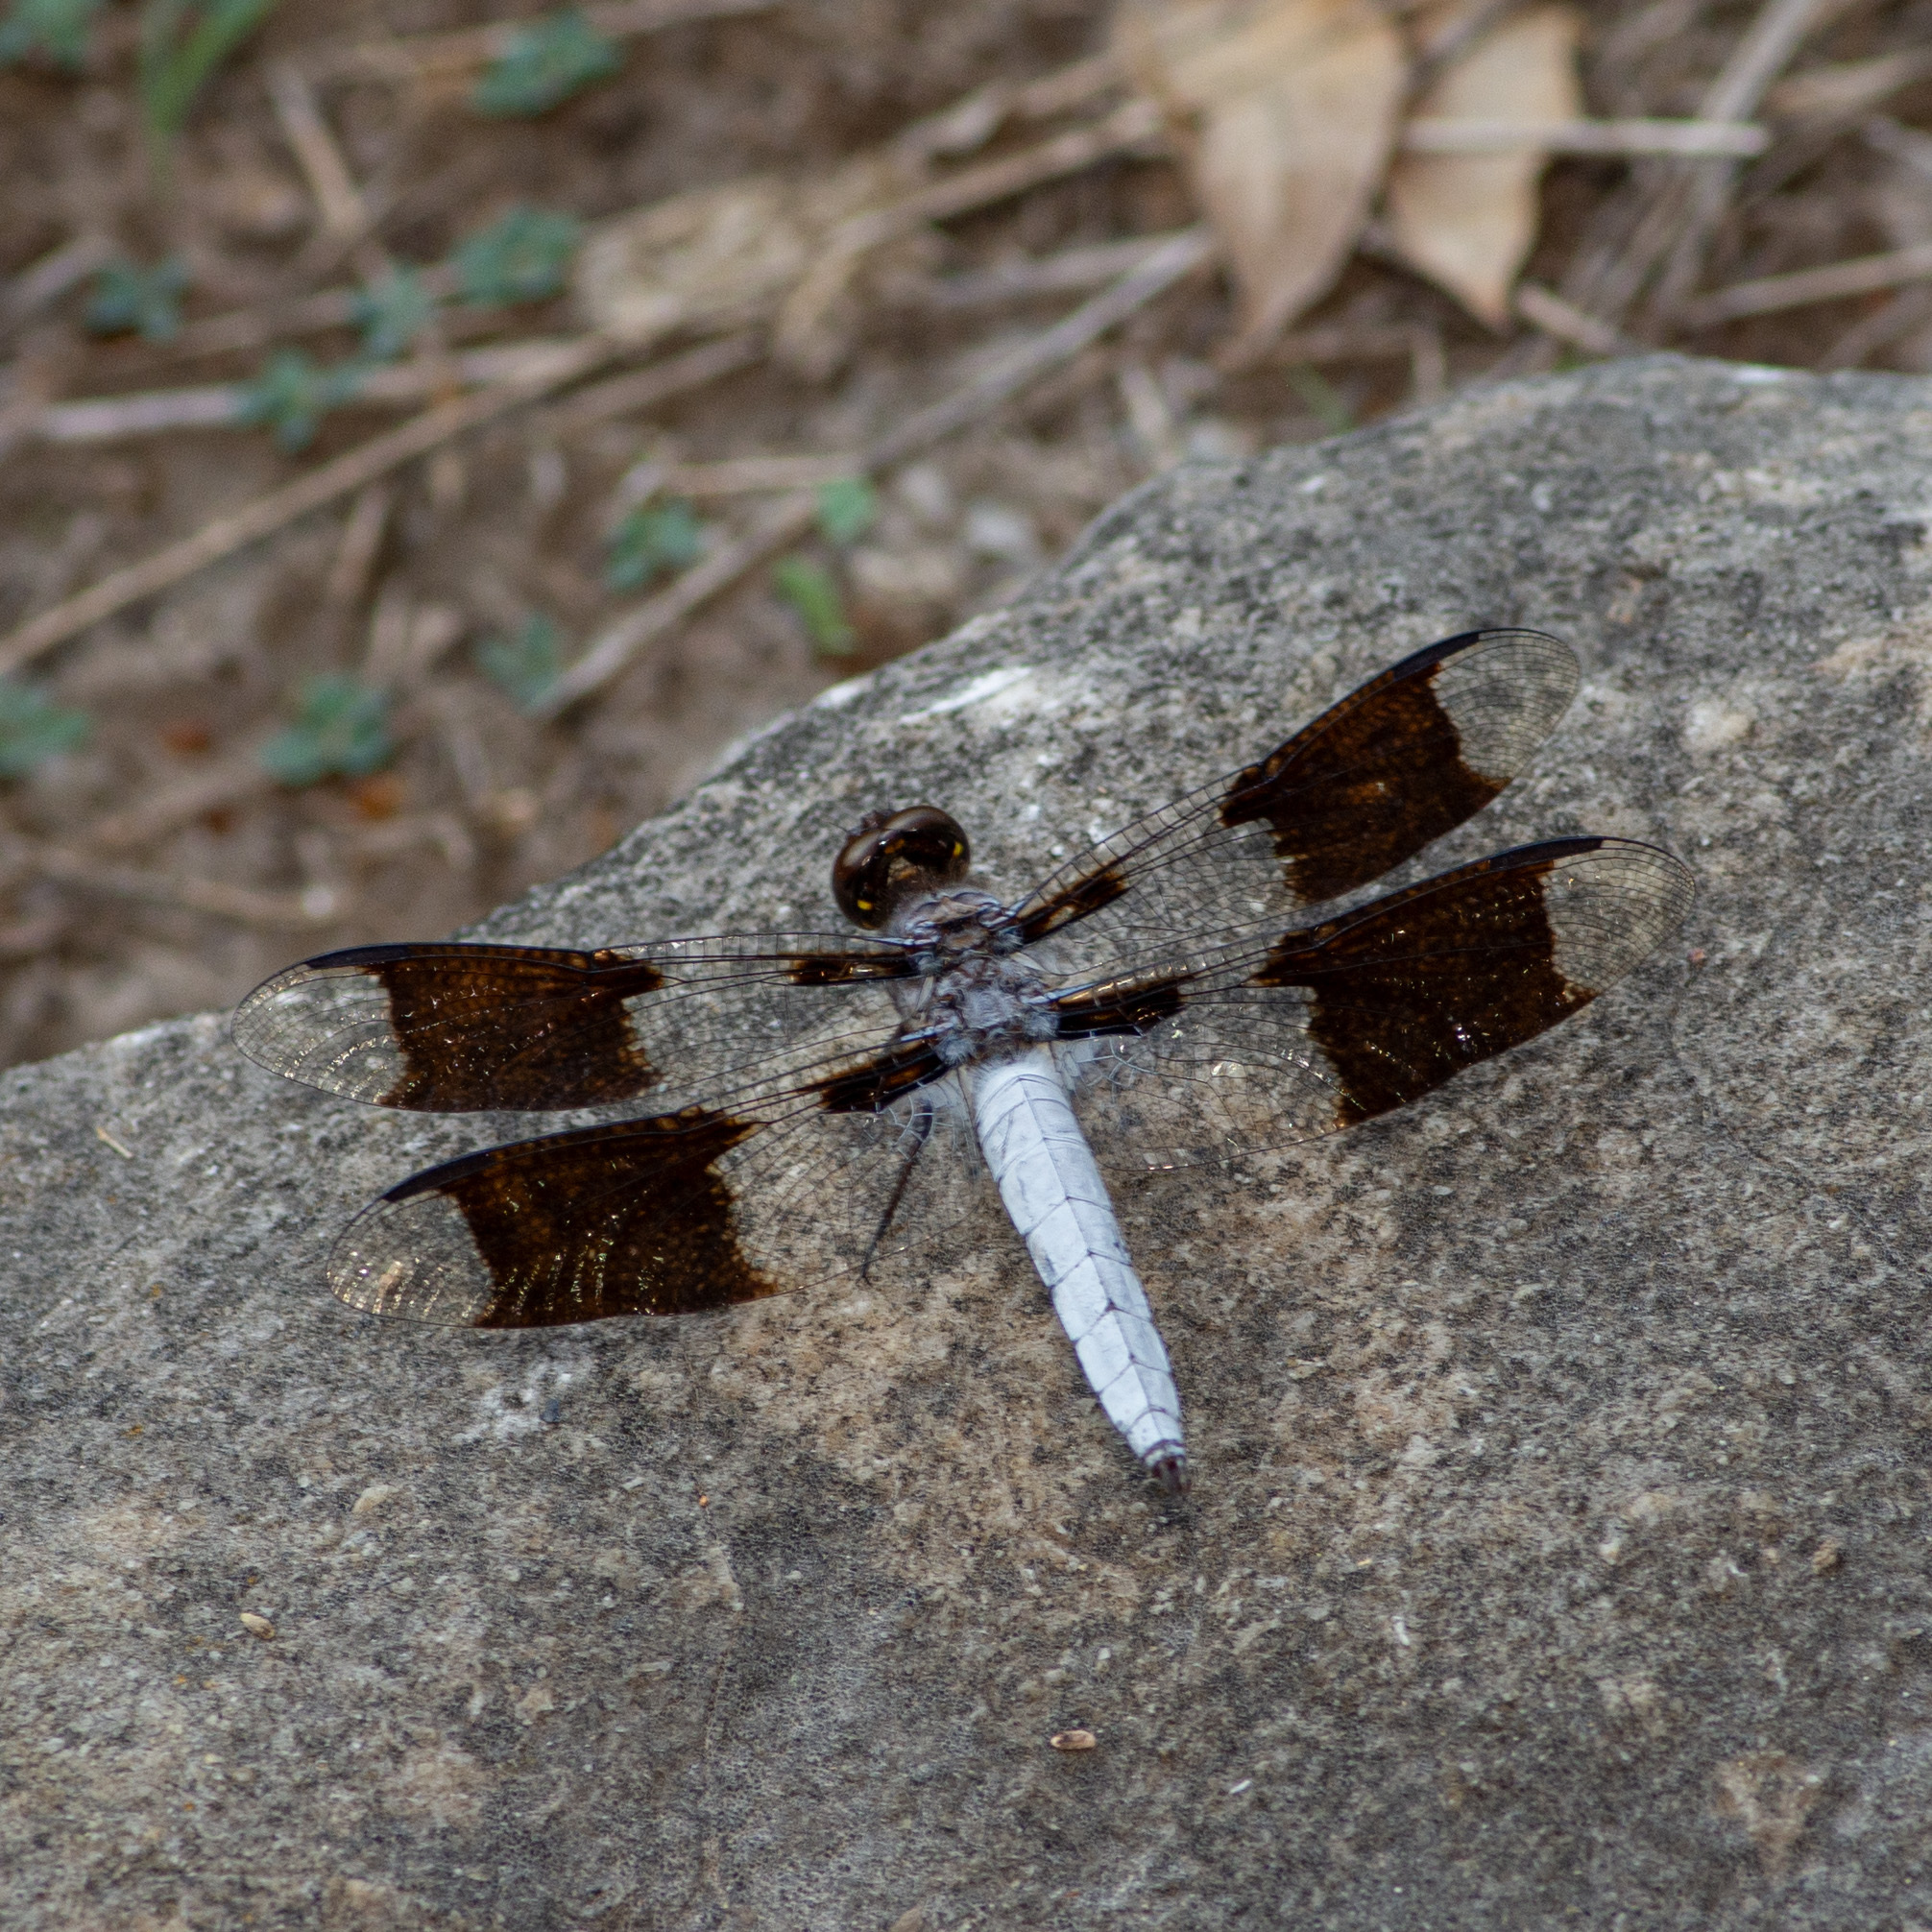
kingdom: Animalia
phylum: Arthropoda
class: Insecta
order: Odonata
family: Libellulidae
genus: Plathemis
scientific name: Plathemis lydia
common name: Common whitetail
